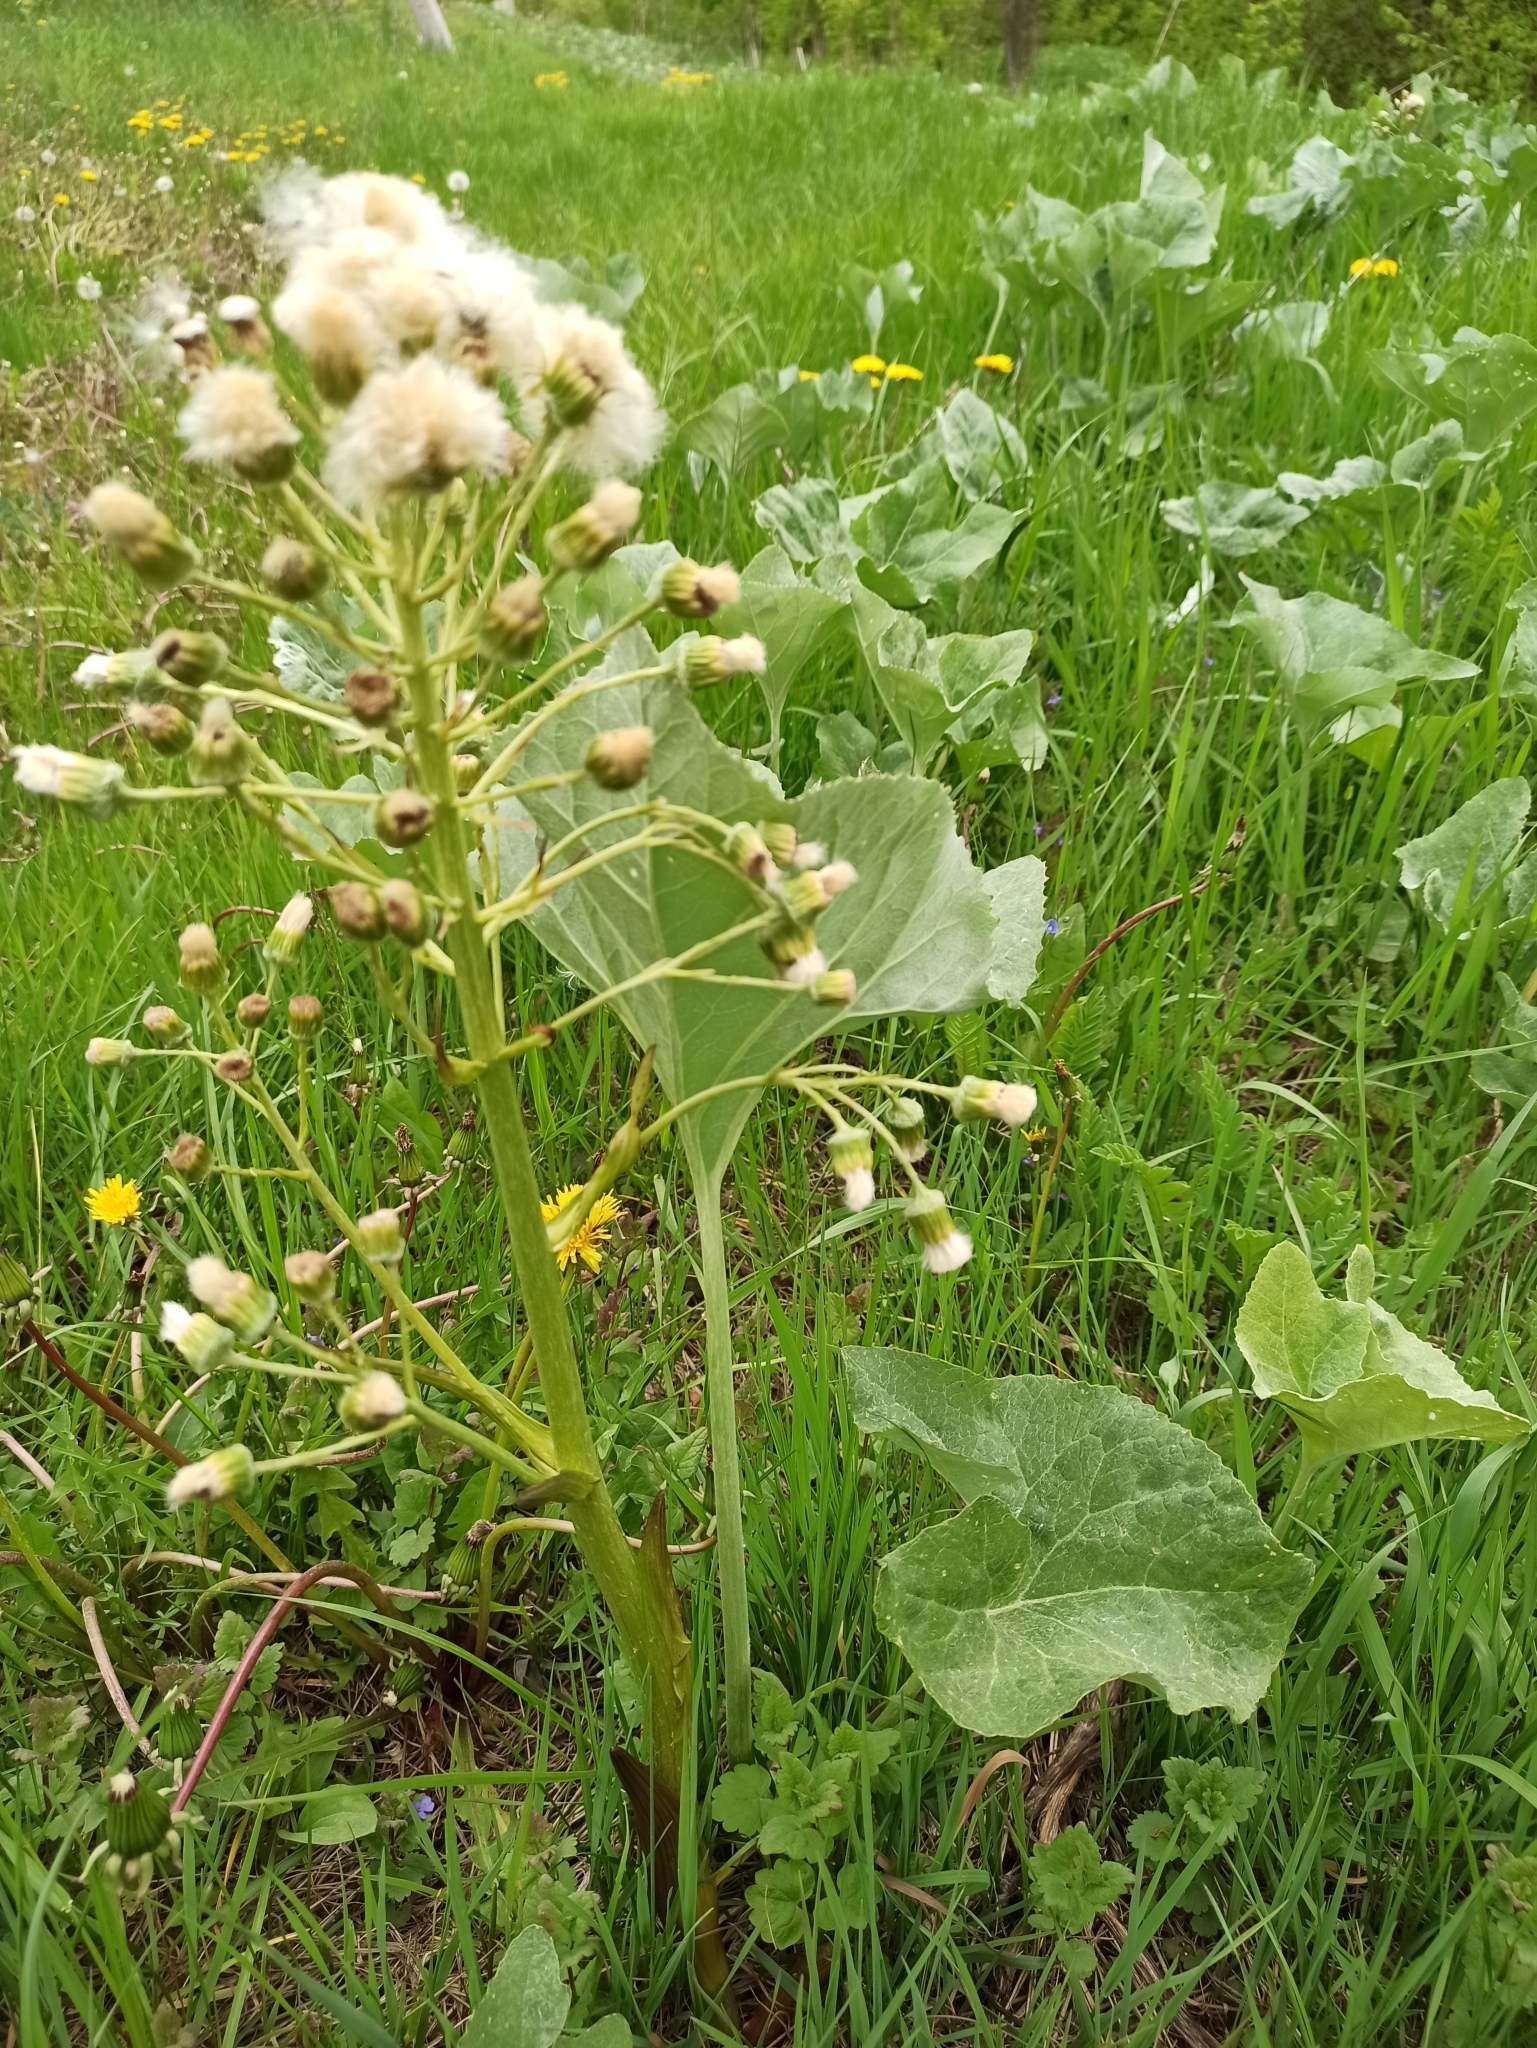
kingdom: Plantae
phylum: Tracheophyta
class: Magnoliopsida
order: Asterales
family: Asteraceae
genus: Petasites
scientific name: Petasites spurius
